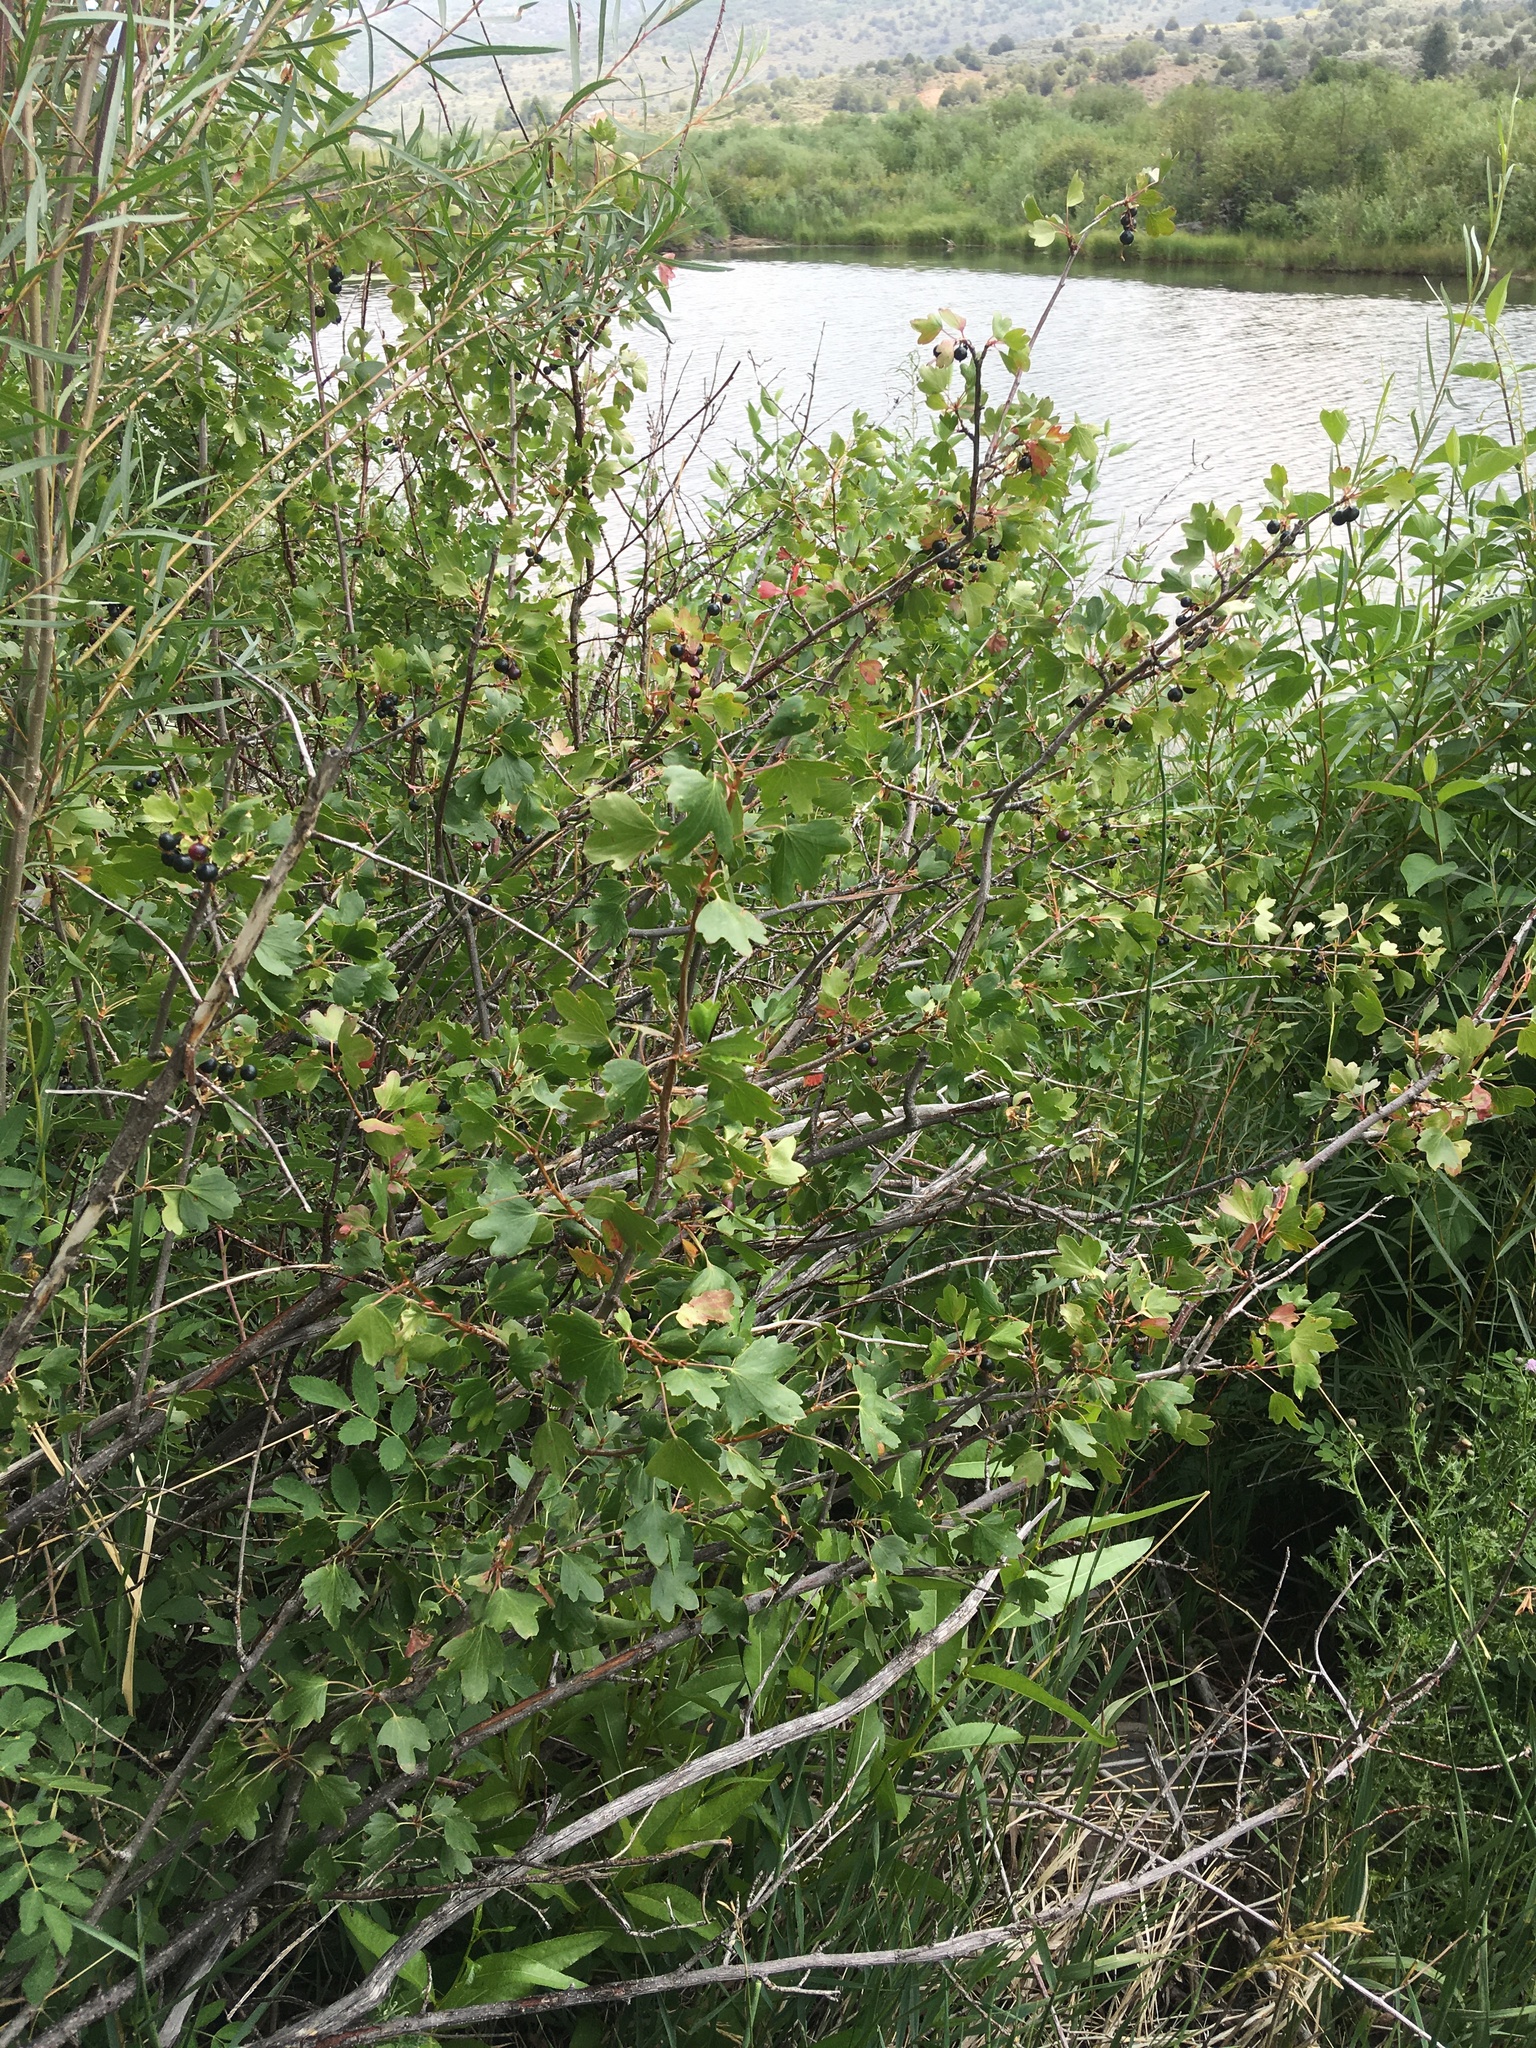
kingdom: Plantae
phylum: Tracheophyta
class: Magnoliopsida
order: Saxifragales
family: Grossulariaceae
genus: Ribes
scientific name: Ribes aureum
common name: Golden currant
